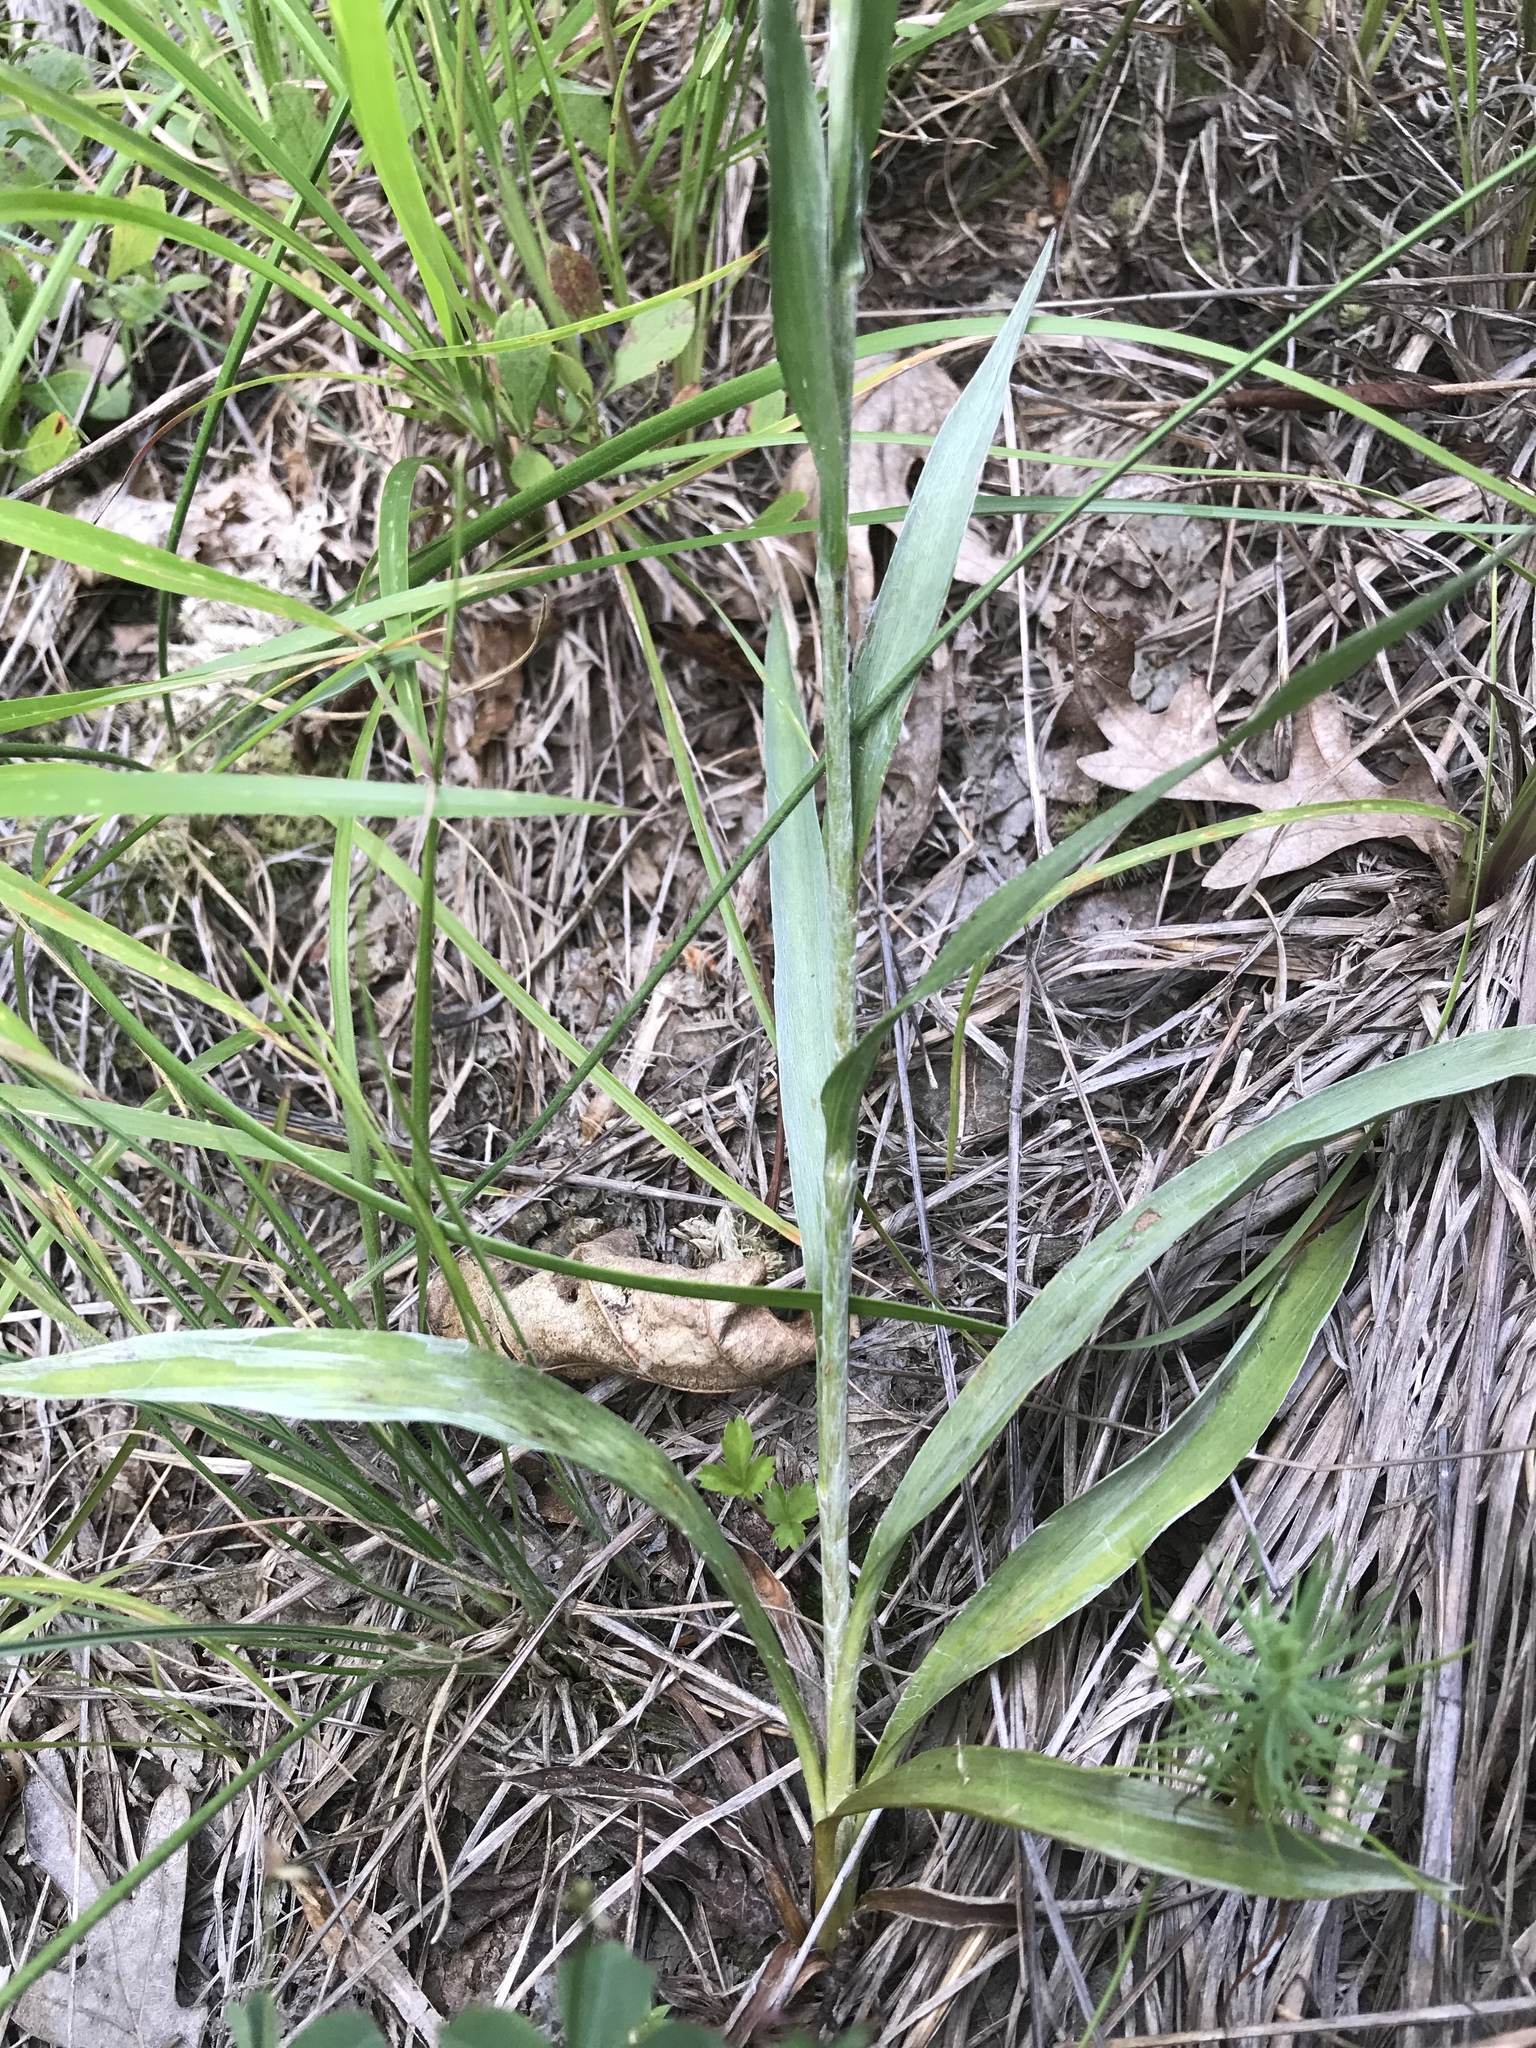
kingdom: Plantae
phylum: Tracheophyta
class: Magnoliopsida
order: Asterales
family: Asteraceae
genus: Pityopsis
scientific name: Pityopsis aspera
